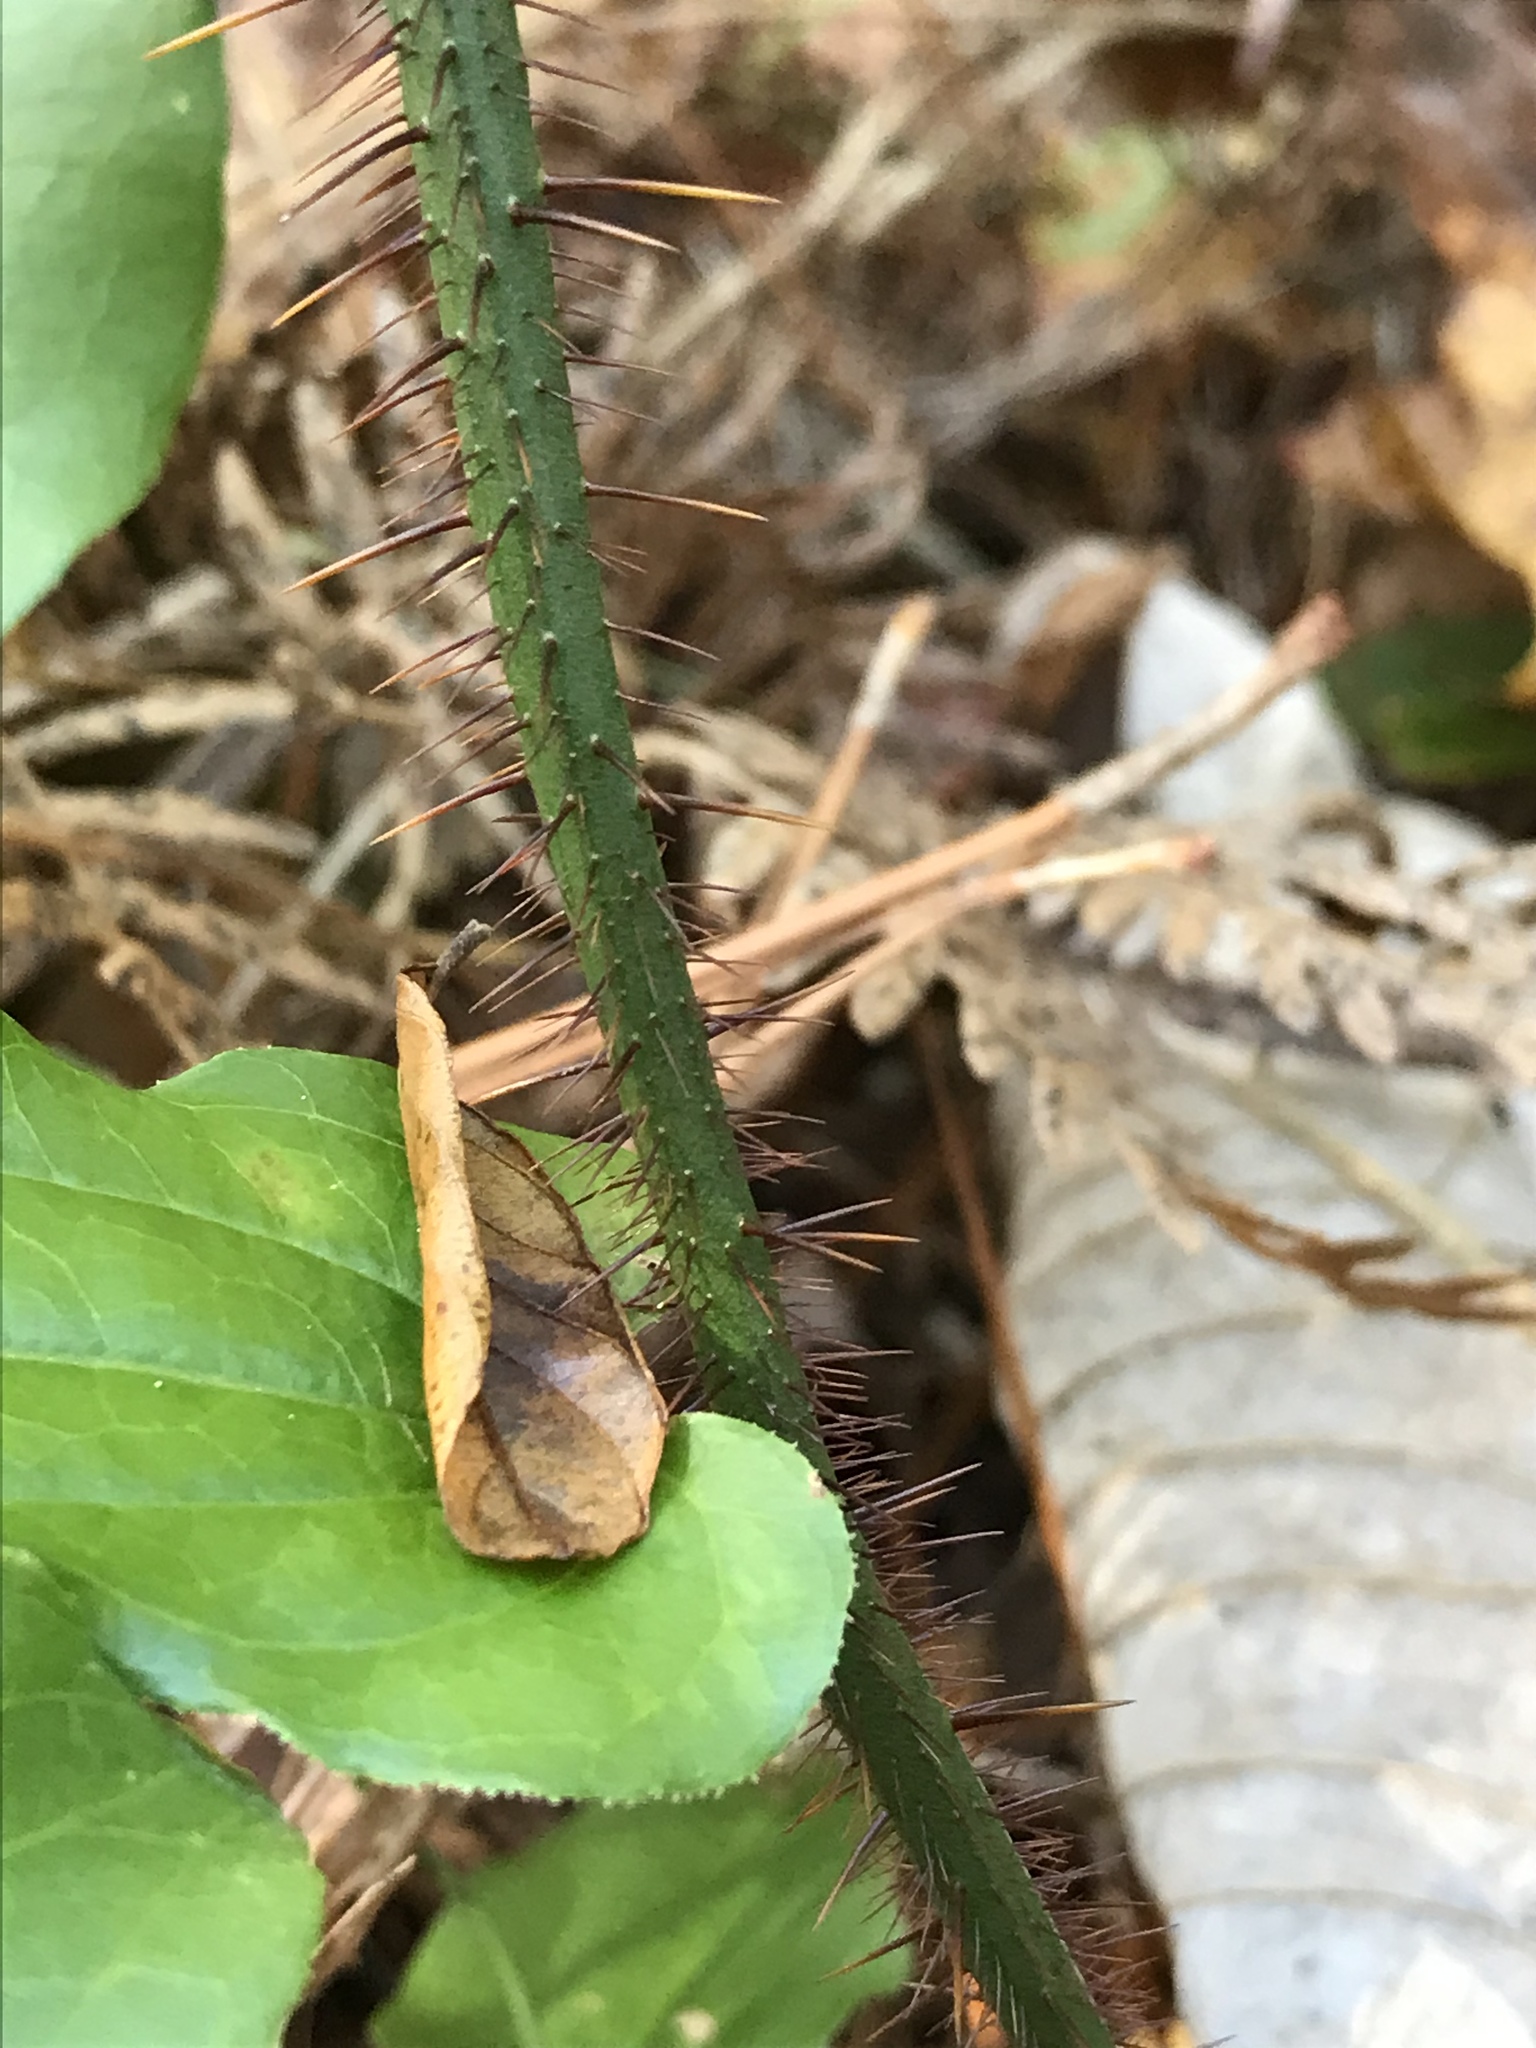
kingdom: Plantae
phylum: Tracheophyta
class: Liliopsida
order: Liliales
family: Smilacaceae
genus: Smilax
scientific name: Smilax tamnoides
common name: Hellfetter
